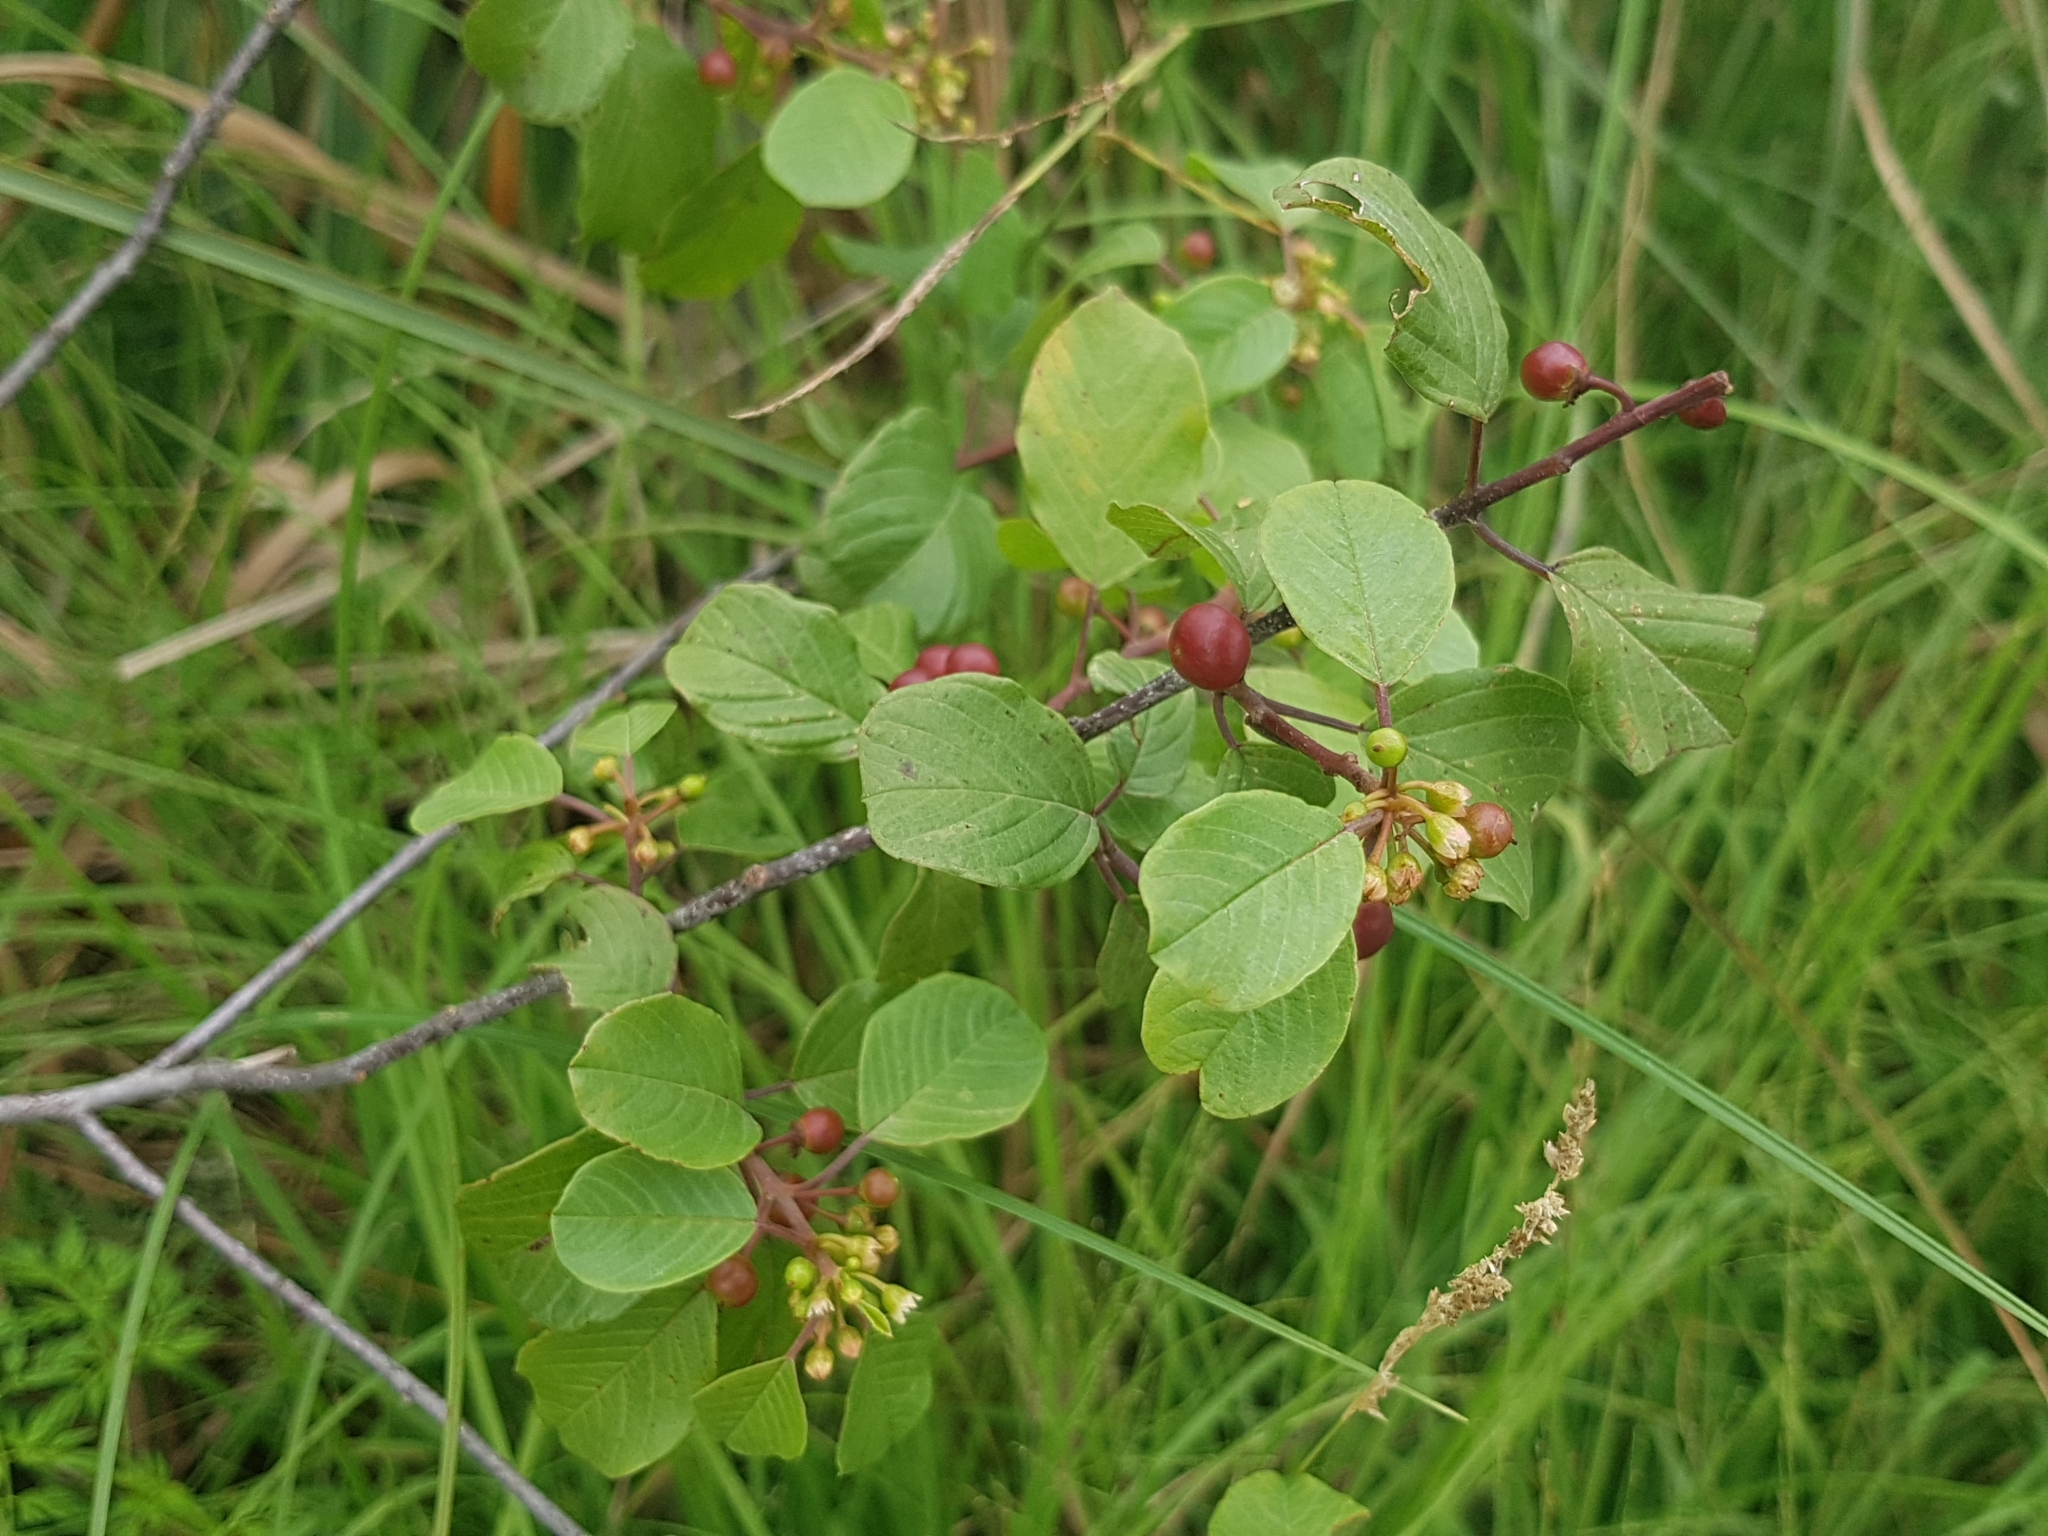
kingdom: Plantae
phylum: Tracheophyta
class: Magnoliopsida
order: Rosales
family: Rhamnaceae
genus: Frangula
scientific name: Frangula alnus
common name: Alder buckthorn
